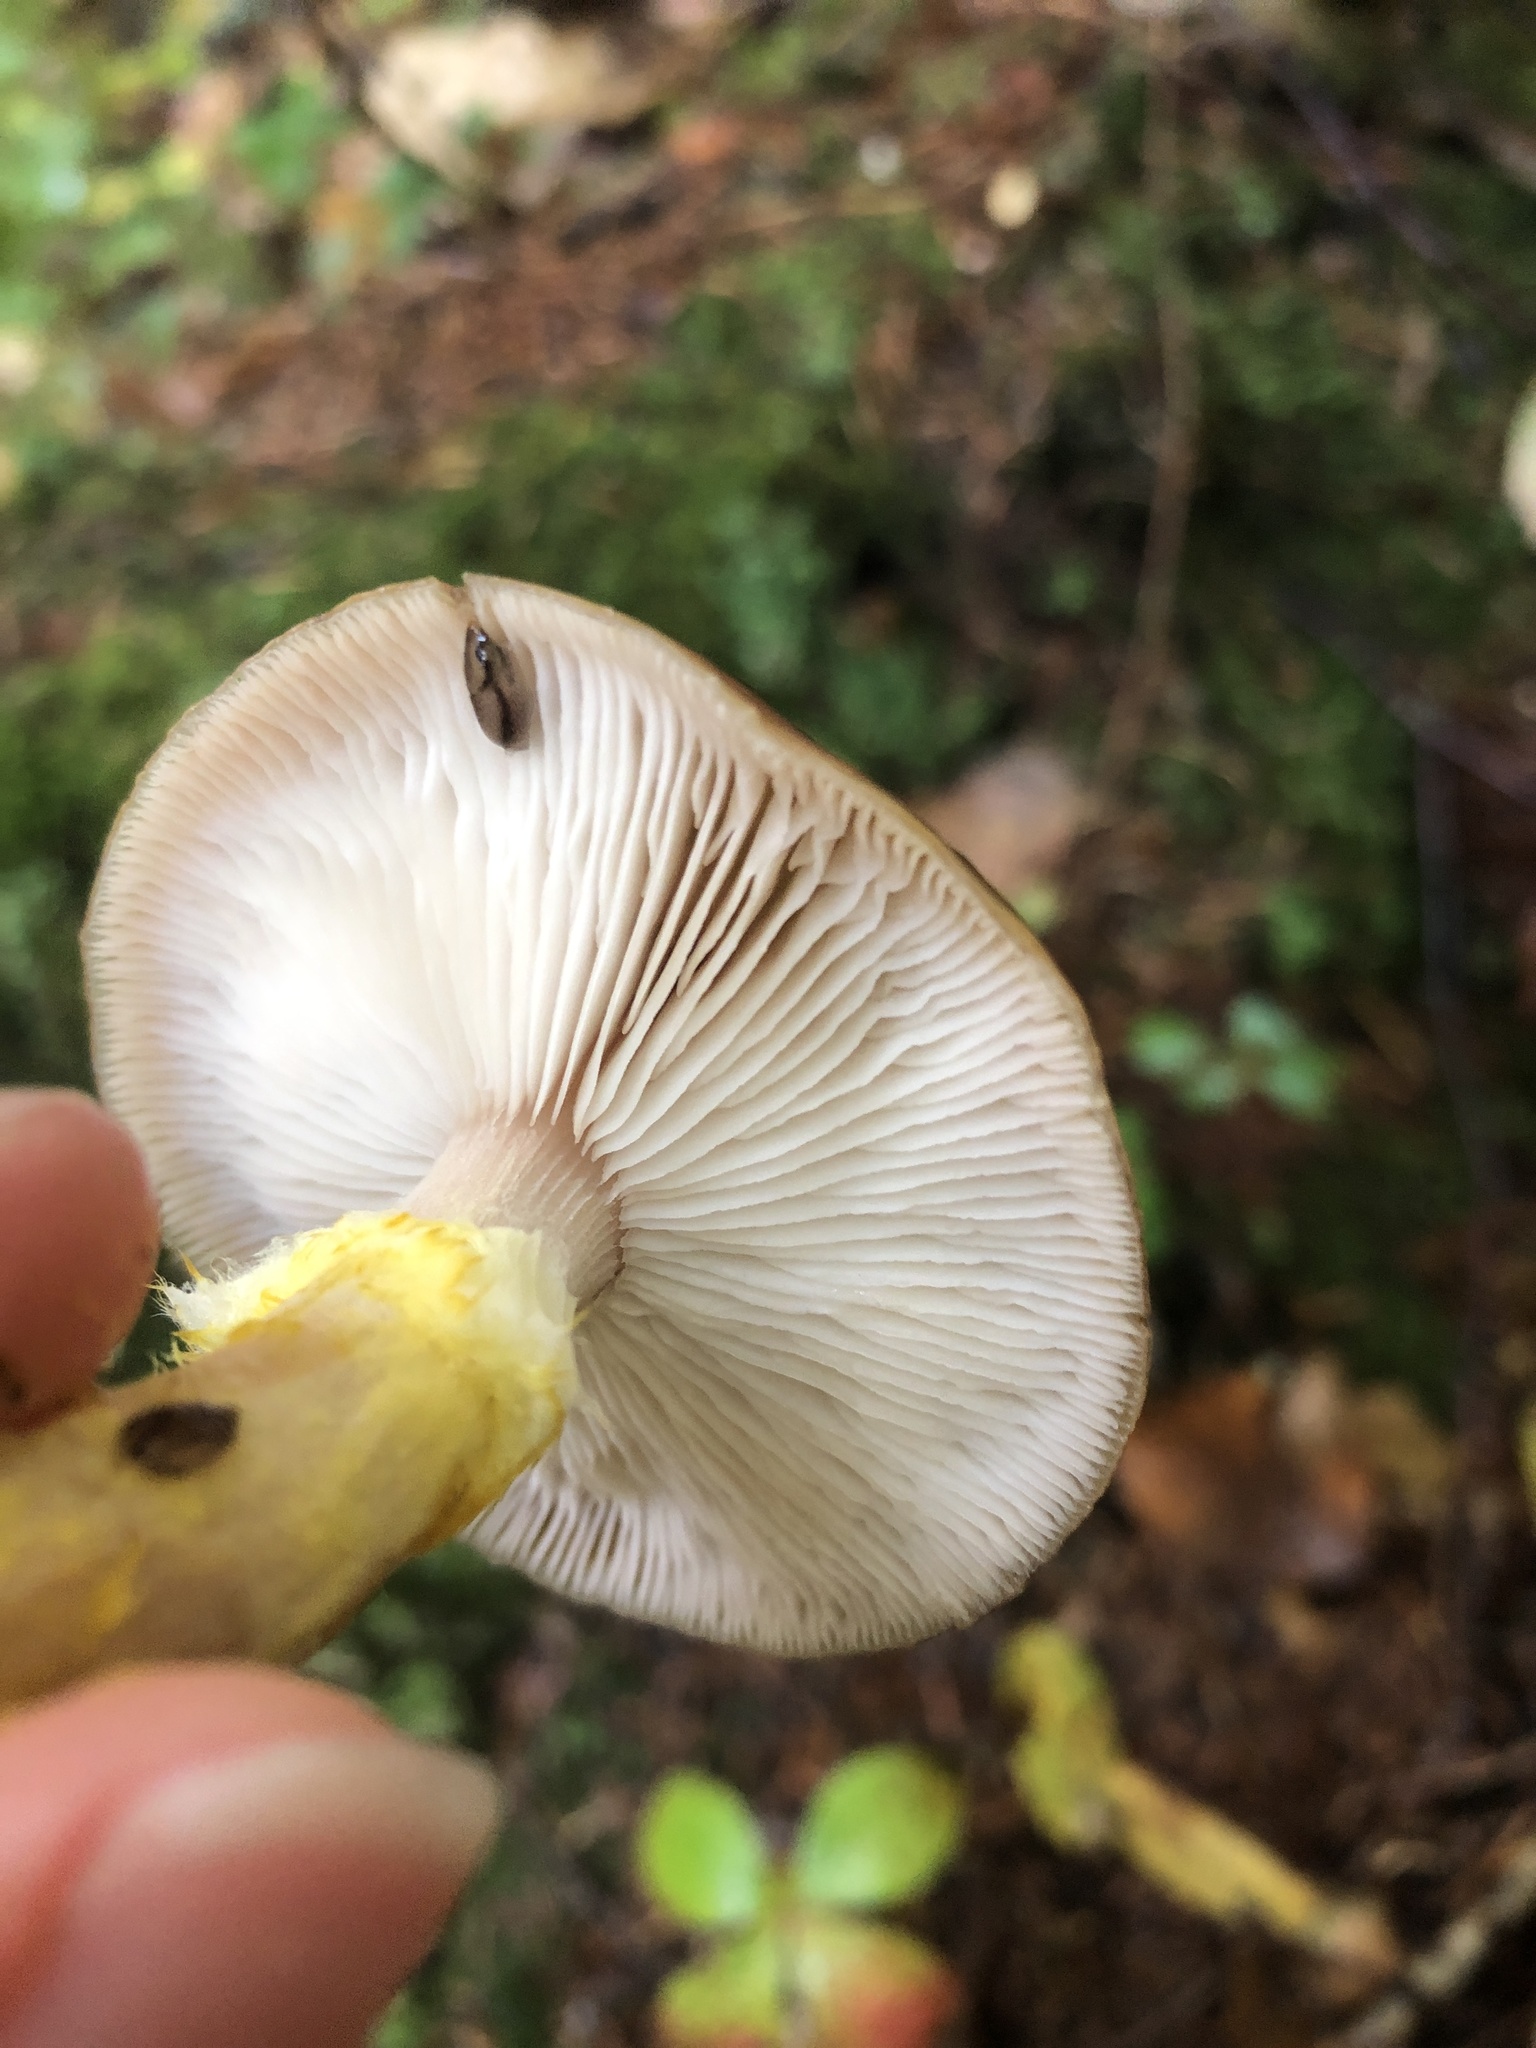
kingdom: Fungi
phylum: Basidiomycota
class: Agaricomycetes
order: Agaricales
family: Physalacriaceae
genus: Armillaria
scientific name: Armillaria sinapina
